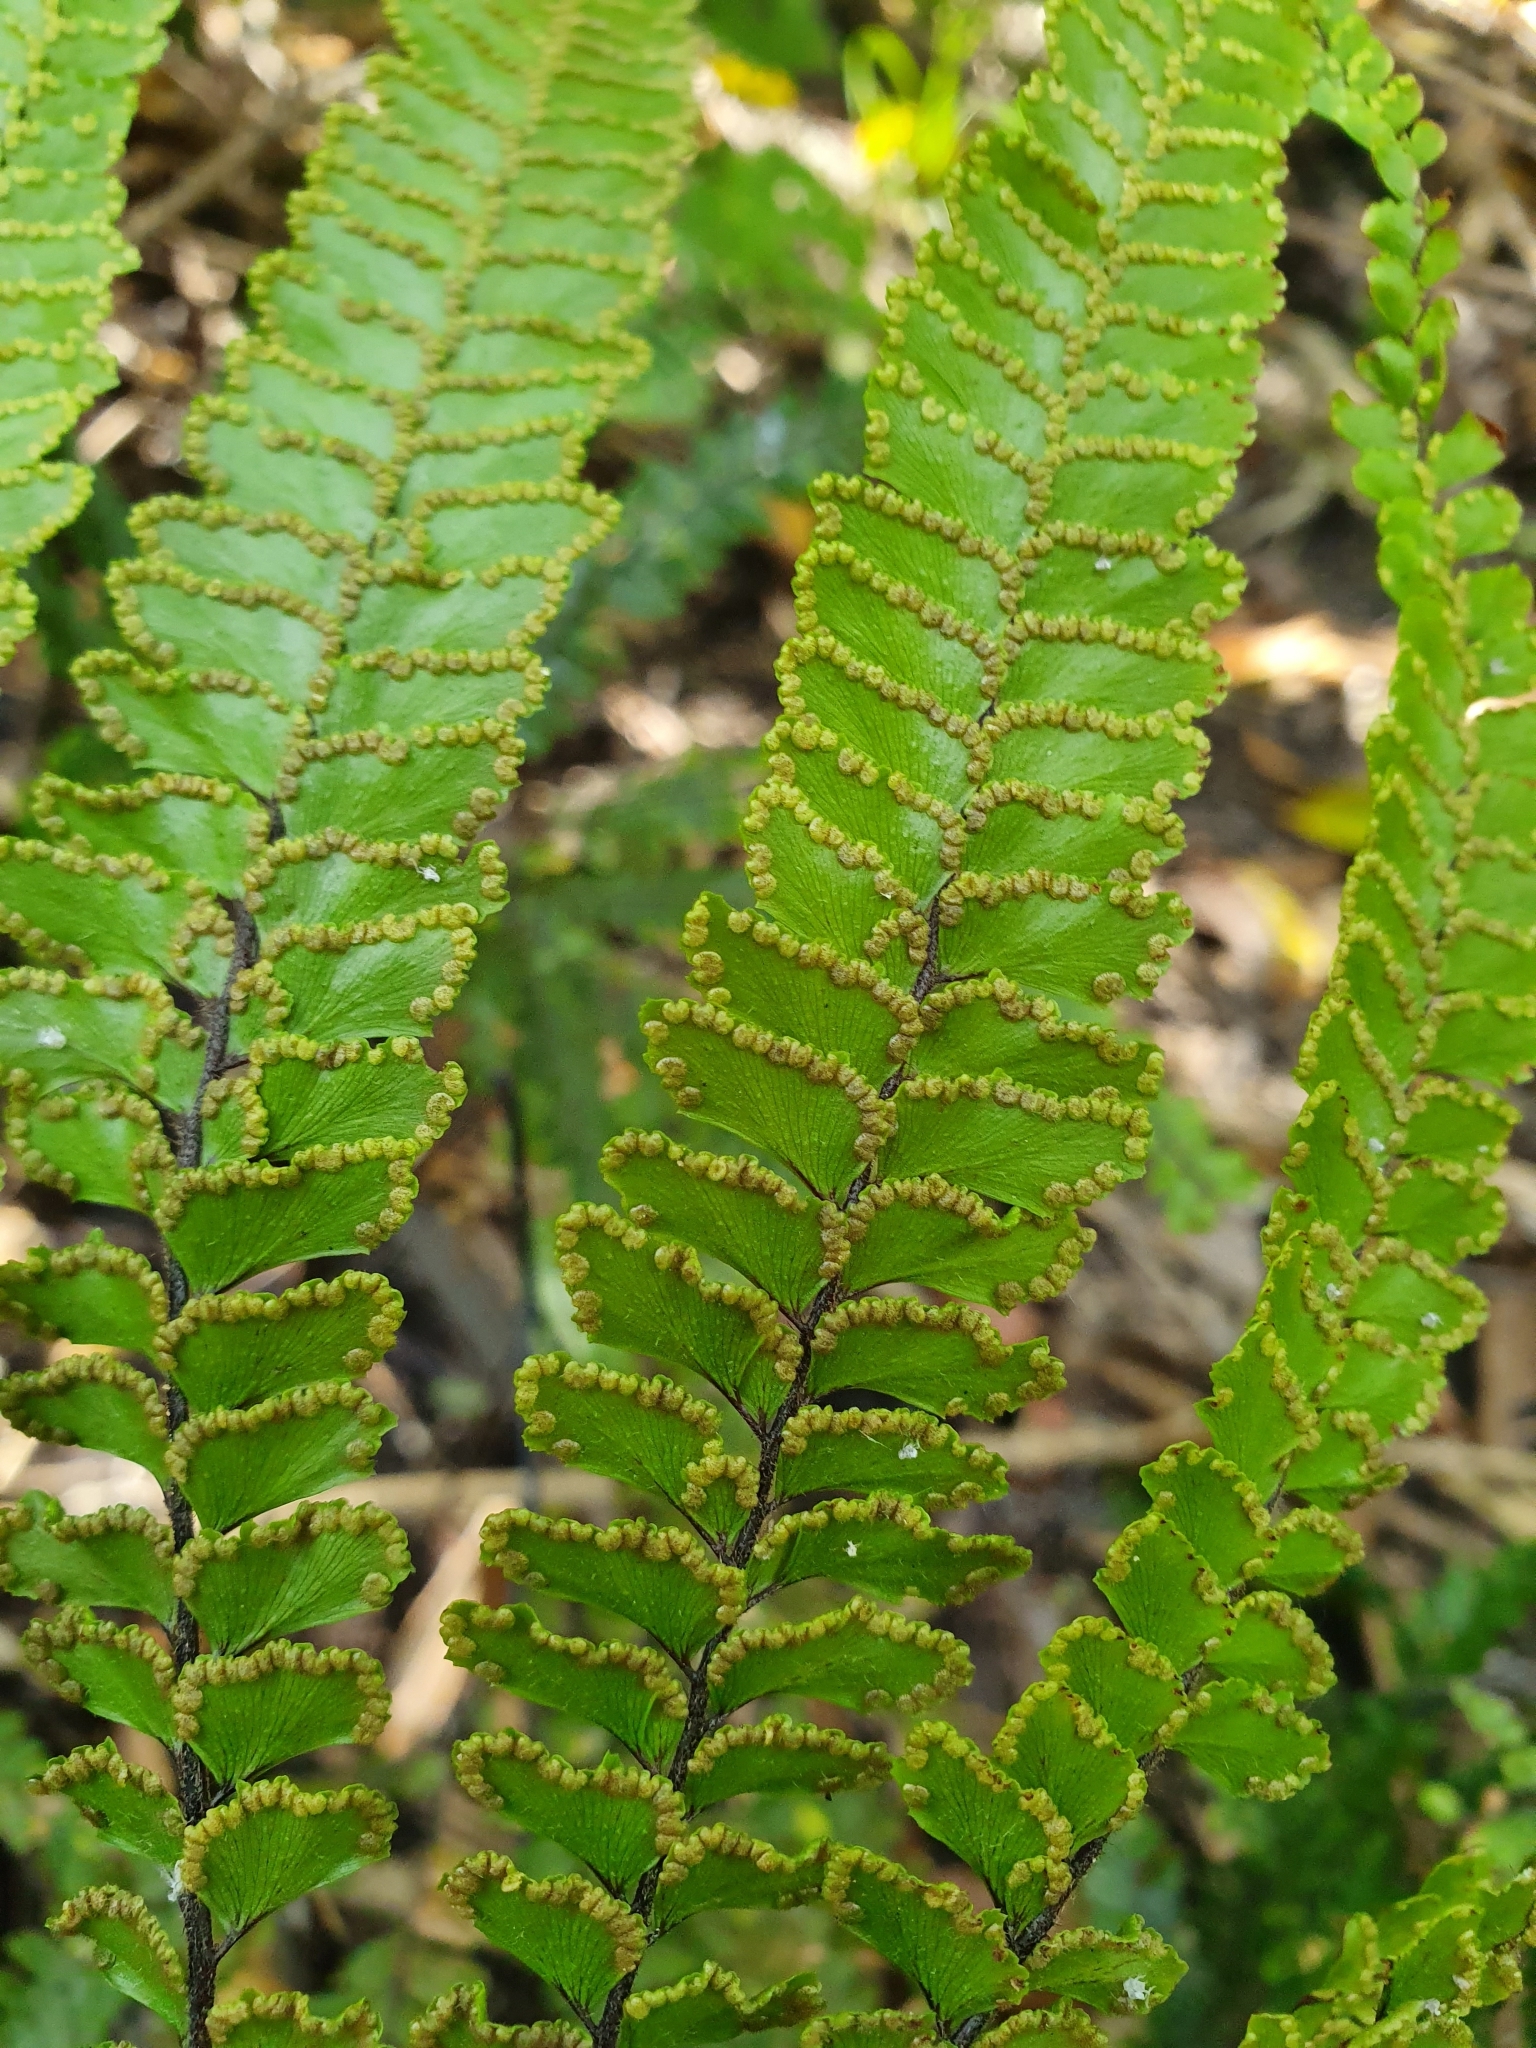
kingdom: Plantae
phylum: Tracheophyta
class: Polypodiopsida
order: Polypodiales
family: Pteridaceae
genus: Adiantum
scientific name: Adiantum hispidulum
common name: Rough maidenhair
